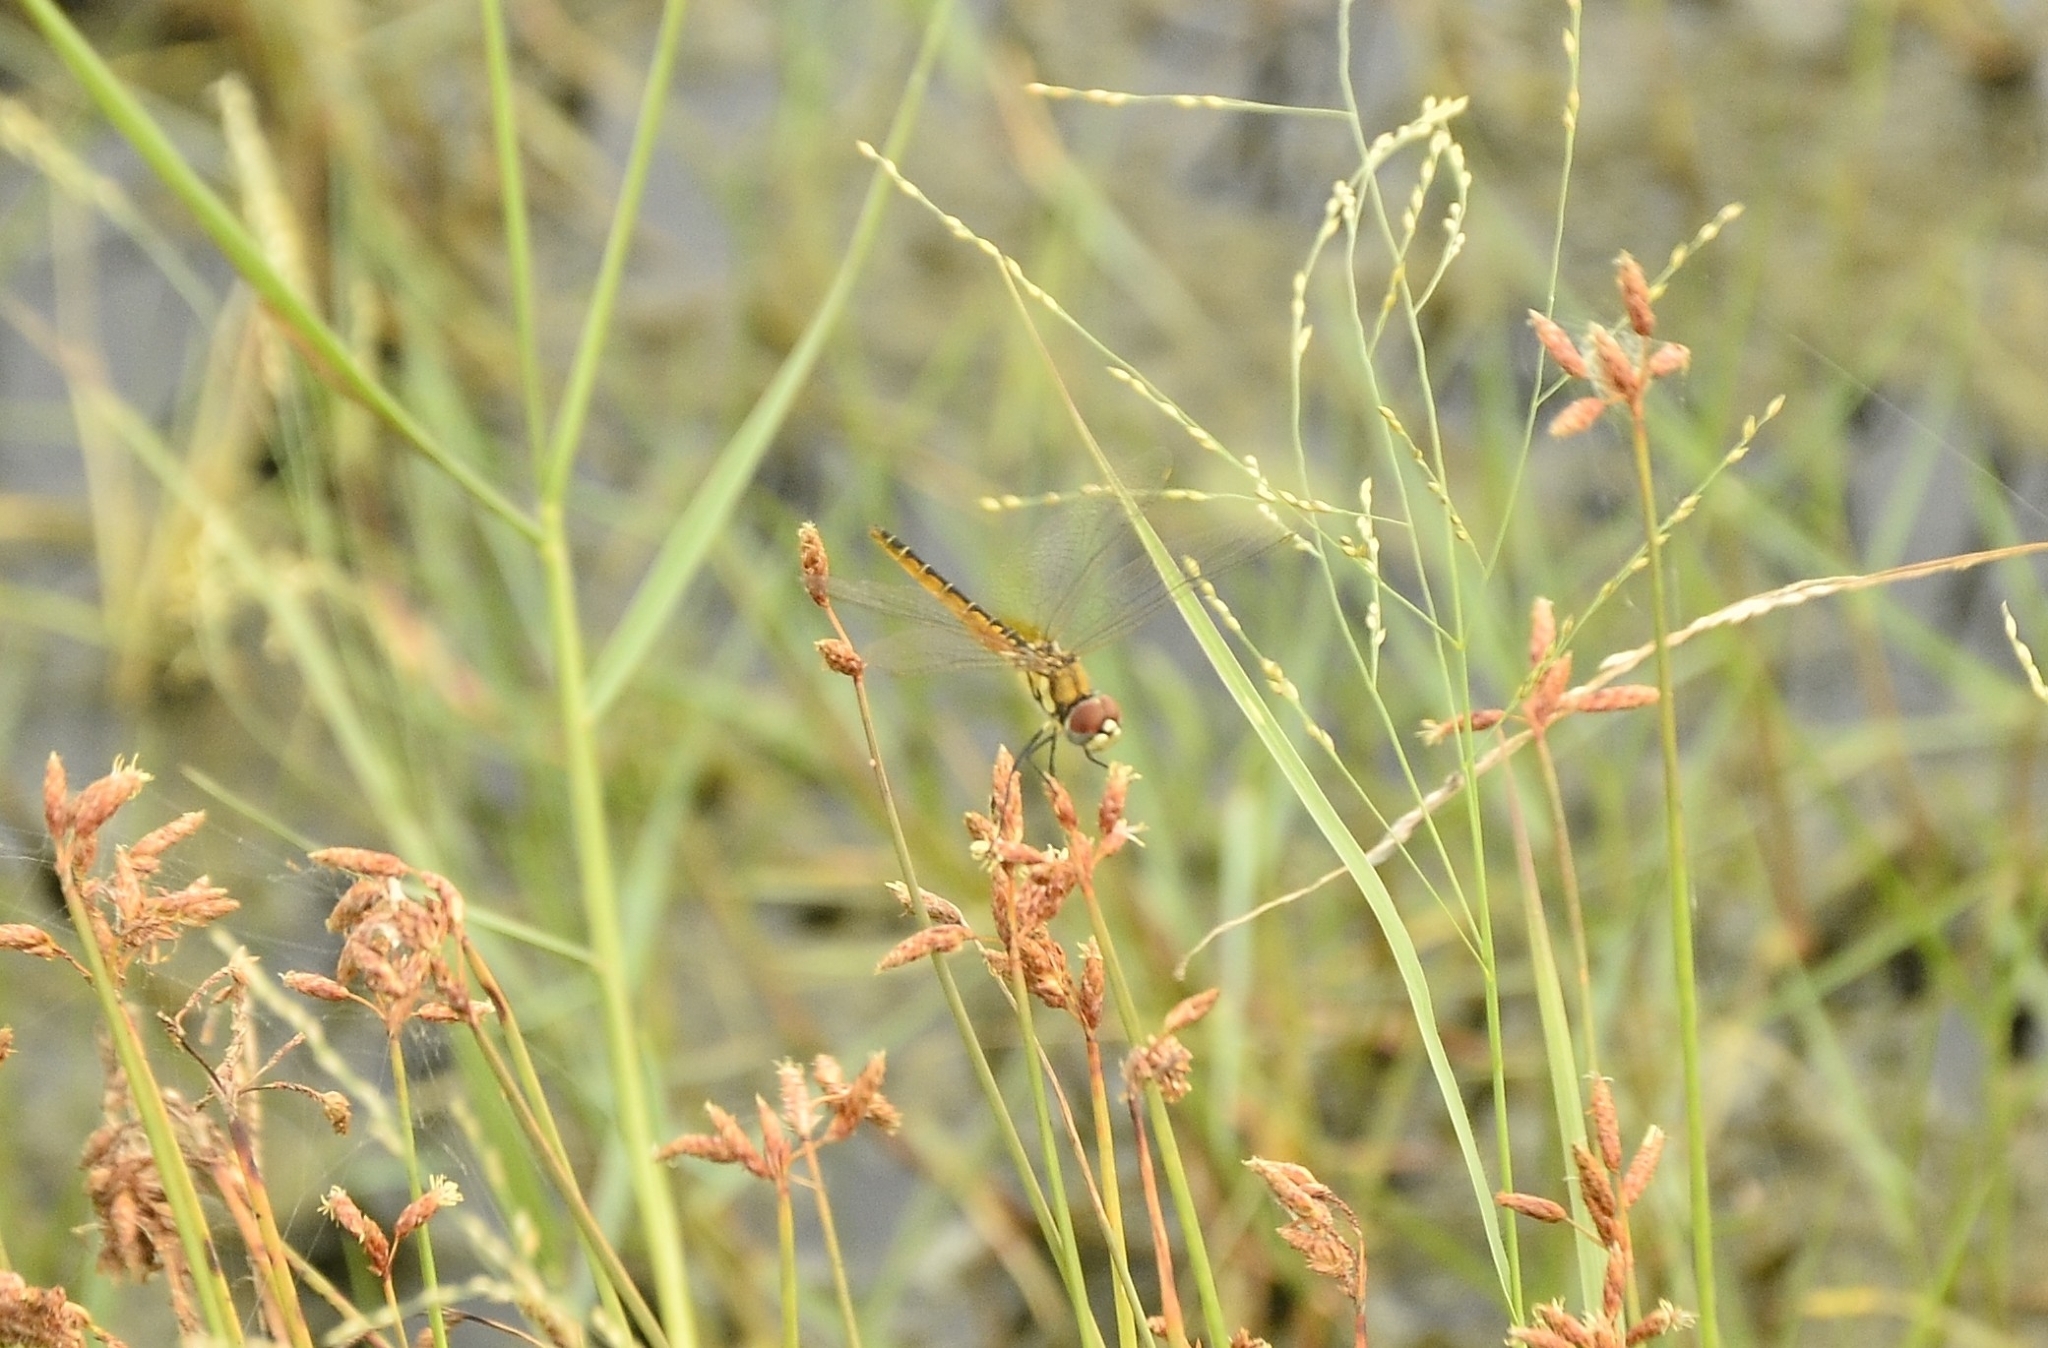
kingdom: Animalia
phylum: Arthropoda
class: Insecta
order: Odonata
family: Libellulidae
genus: Macrodiplax
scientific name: Macrodiplax cora
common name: Coastal glider
